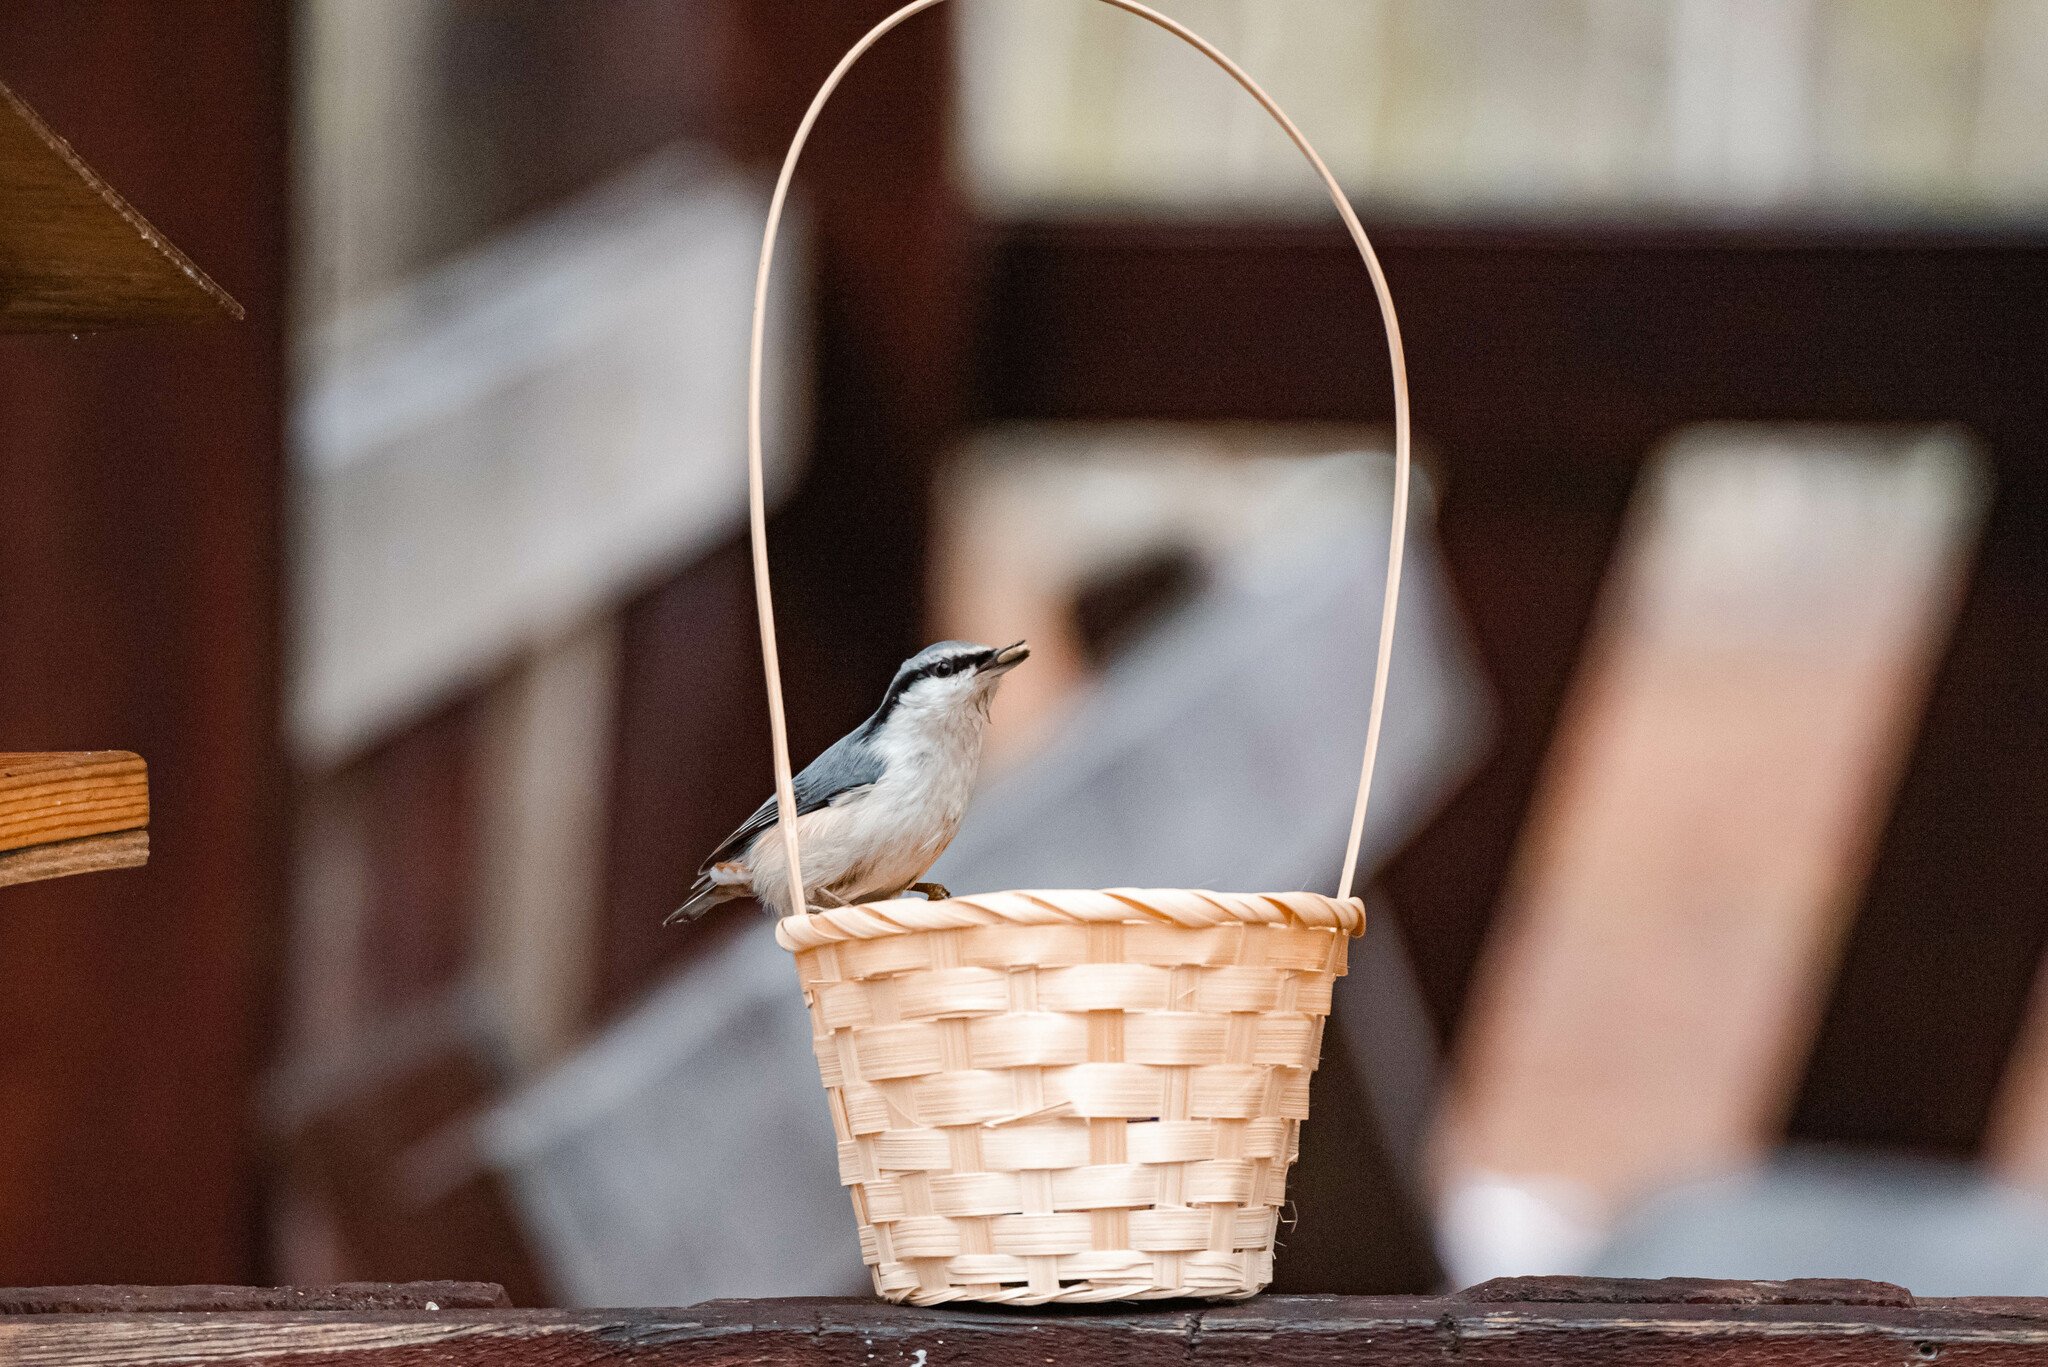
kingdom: Animalia
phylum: Chordata
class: Aves
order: Passeriformes
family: Sittidae
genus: Sitta
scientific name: Sitta europaea
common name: Eurasian nuthatch
